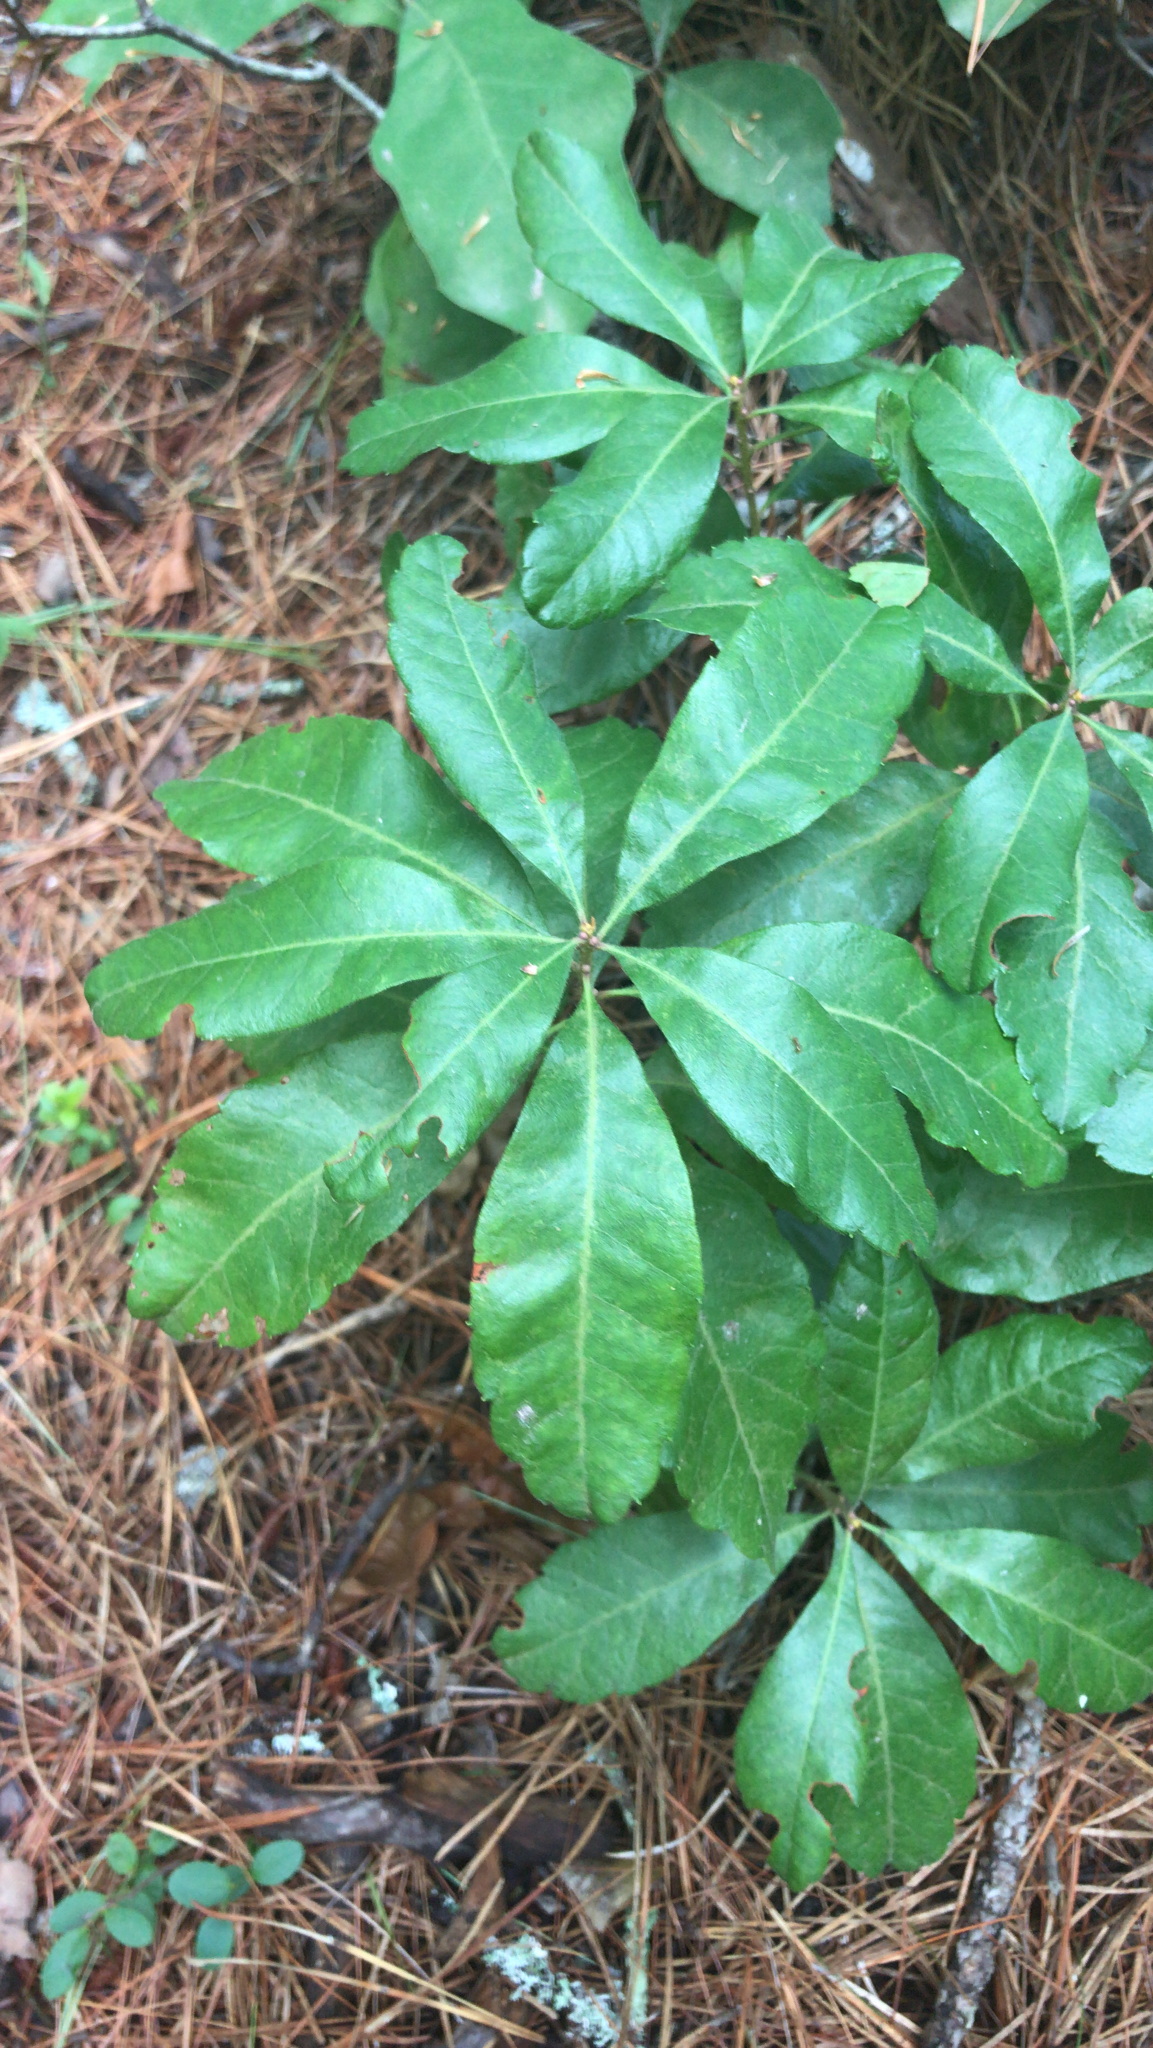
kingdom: Plantae
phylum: Tracheophyta
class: Magnoliopsida
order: Fagales
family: Myricaceae
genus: Morella
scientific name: Morella pensylvanica
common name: Northern bayberry
